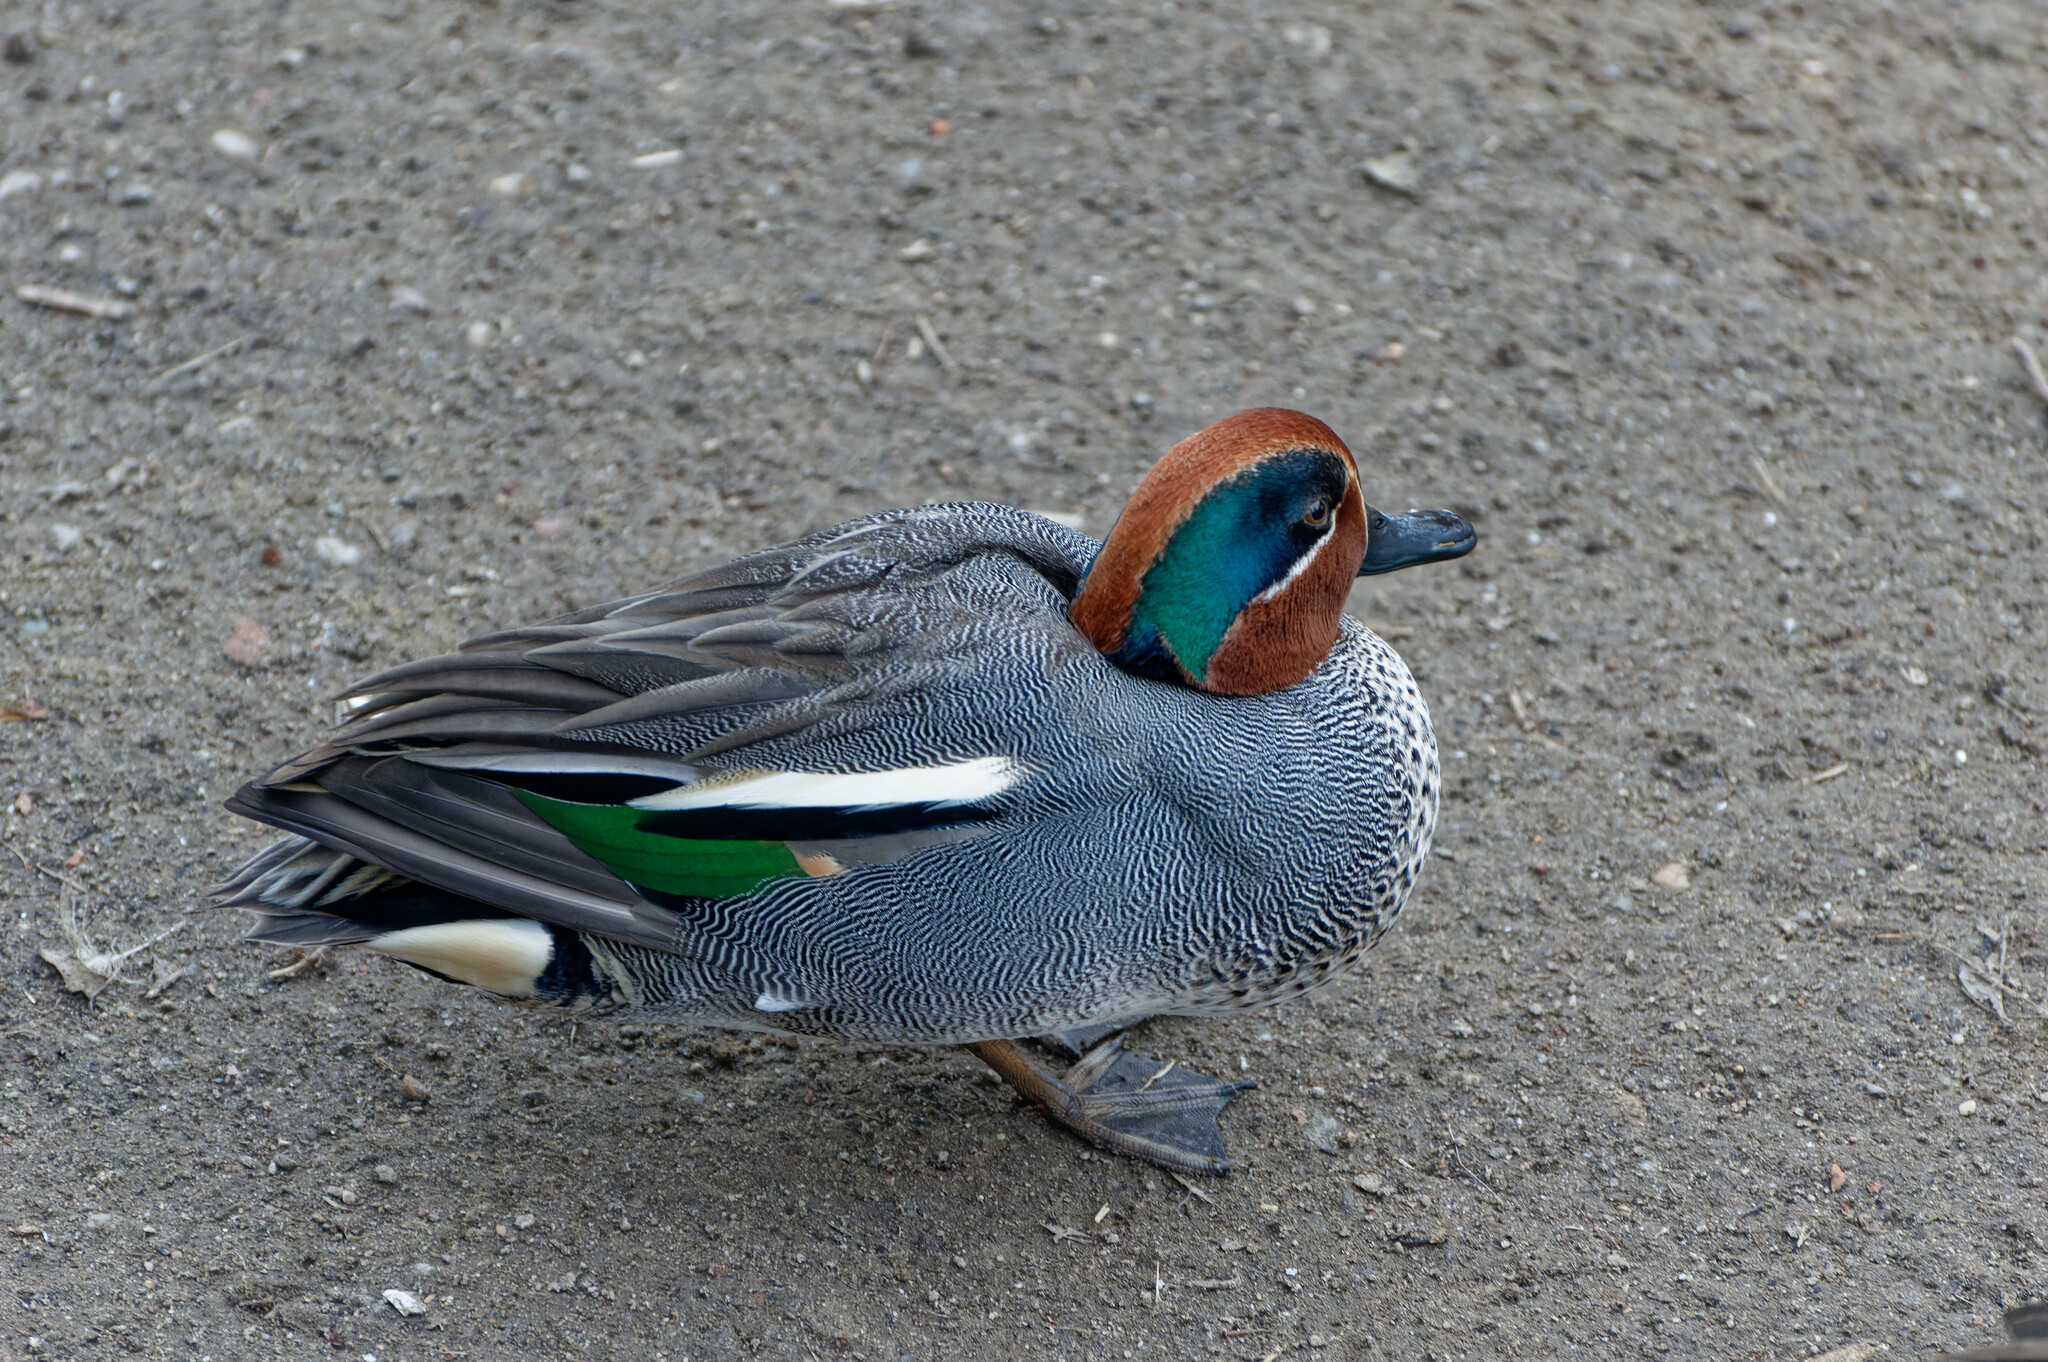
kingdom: Animalia
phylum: Chordata
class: Aves
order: Anseriformes
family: Anatidae
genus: Anas
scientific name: Anas crecca
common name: Eurasian teal
